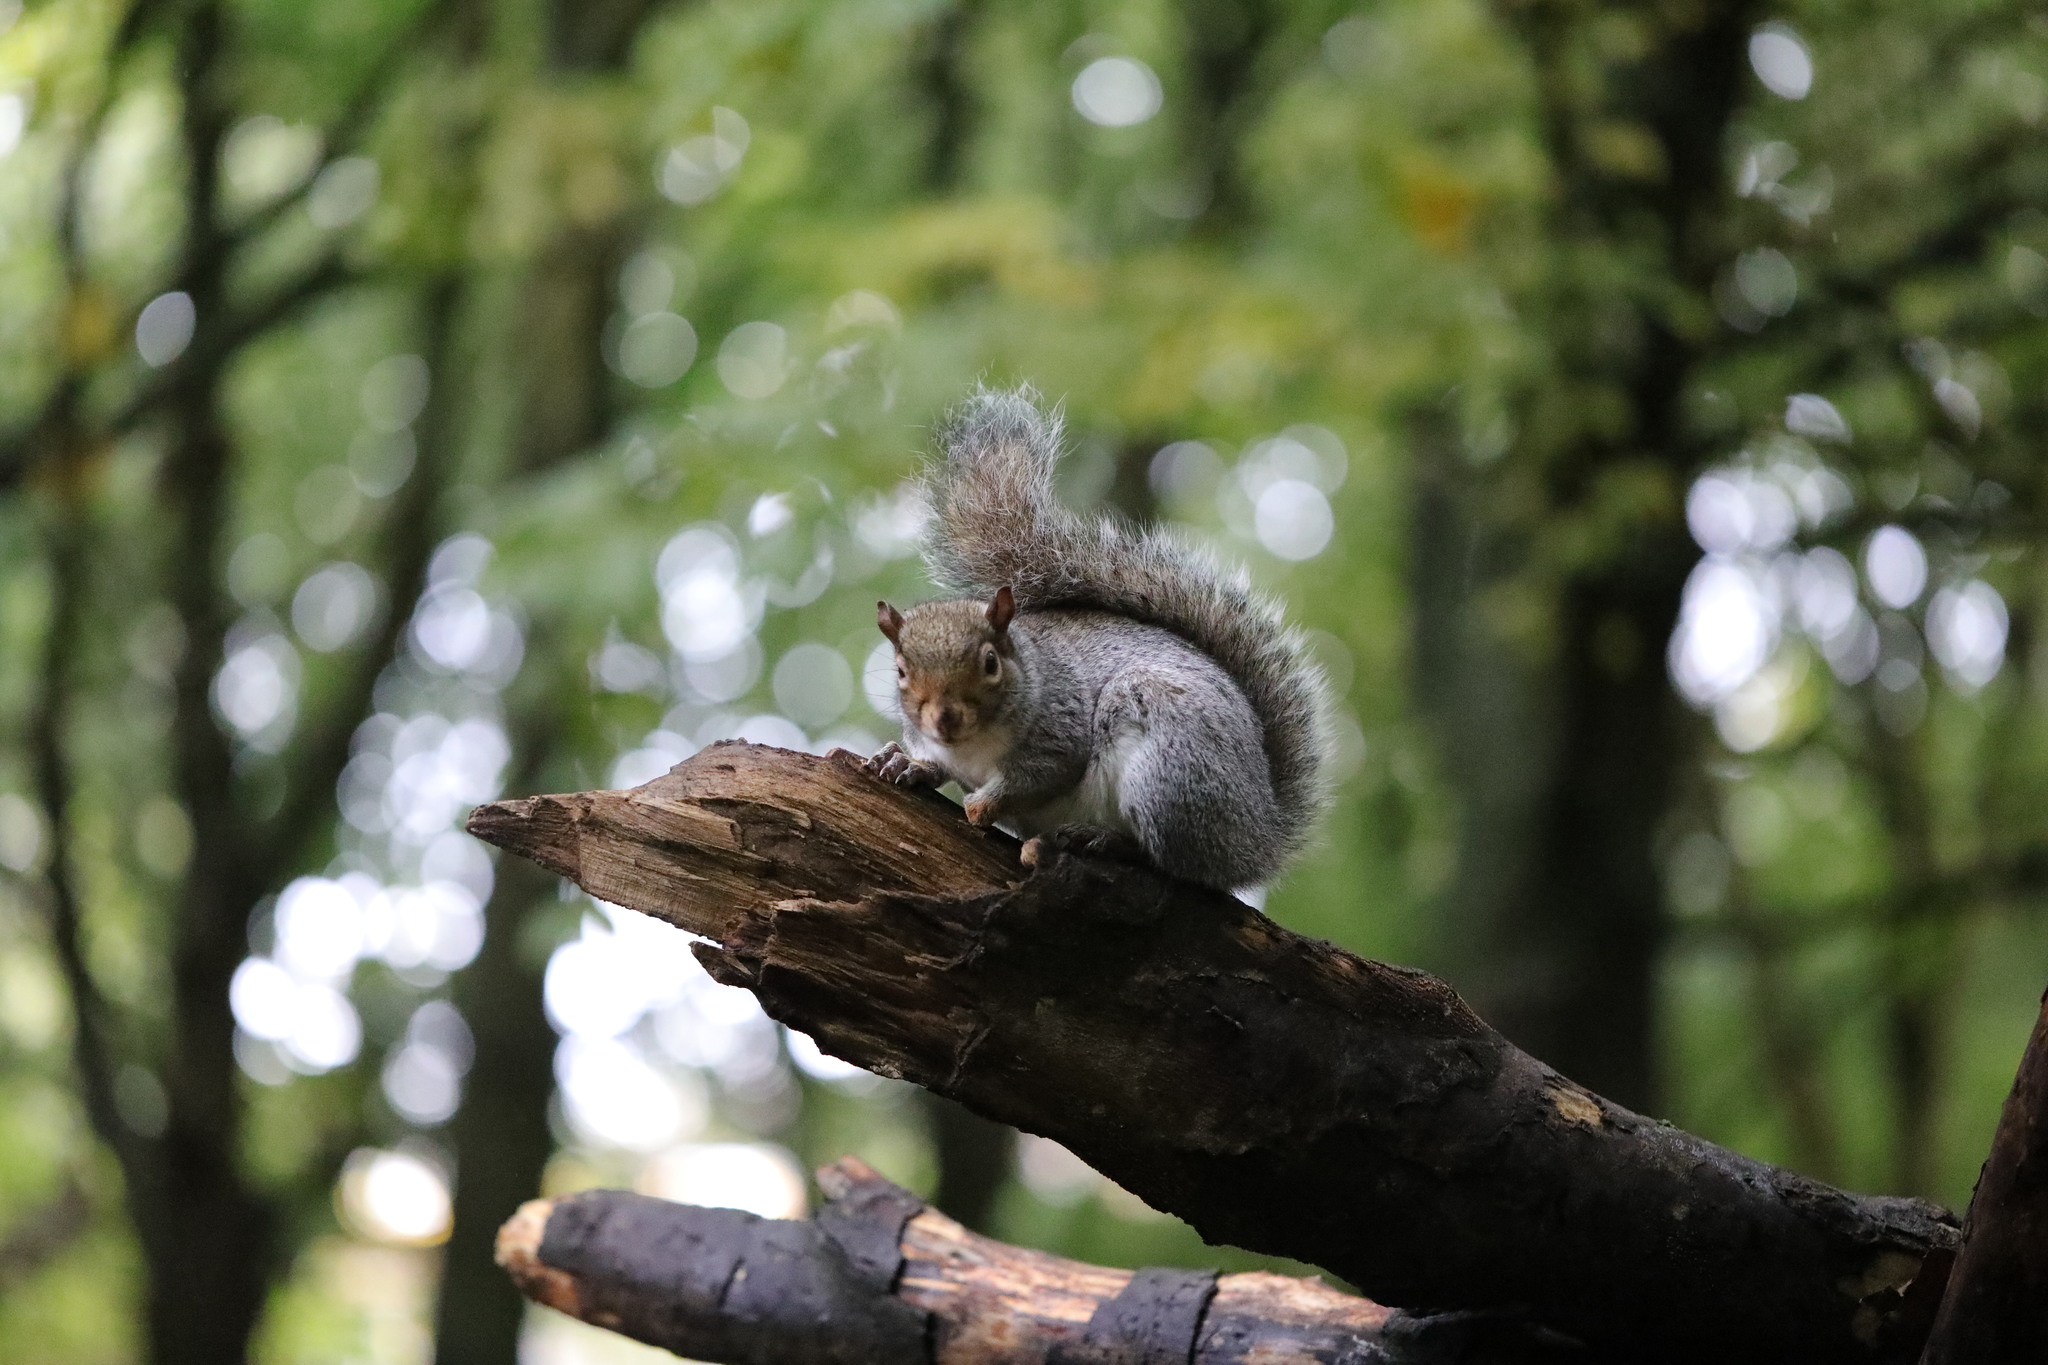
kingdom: Animalia
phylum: Chordata
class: Mammalia
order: Rodentia
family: Sciuridae
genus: Sciurus
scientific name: Sciurus carolinensis
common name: Eastern gray squirrel
